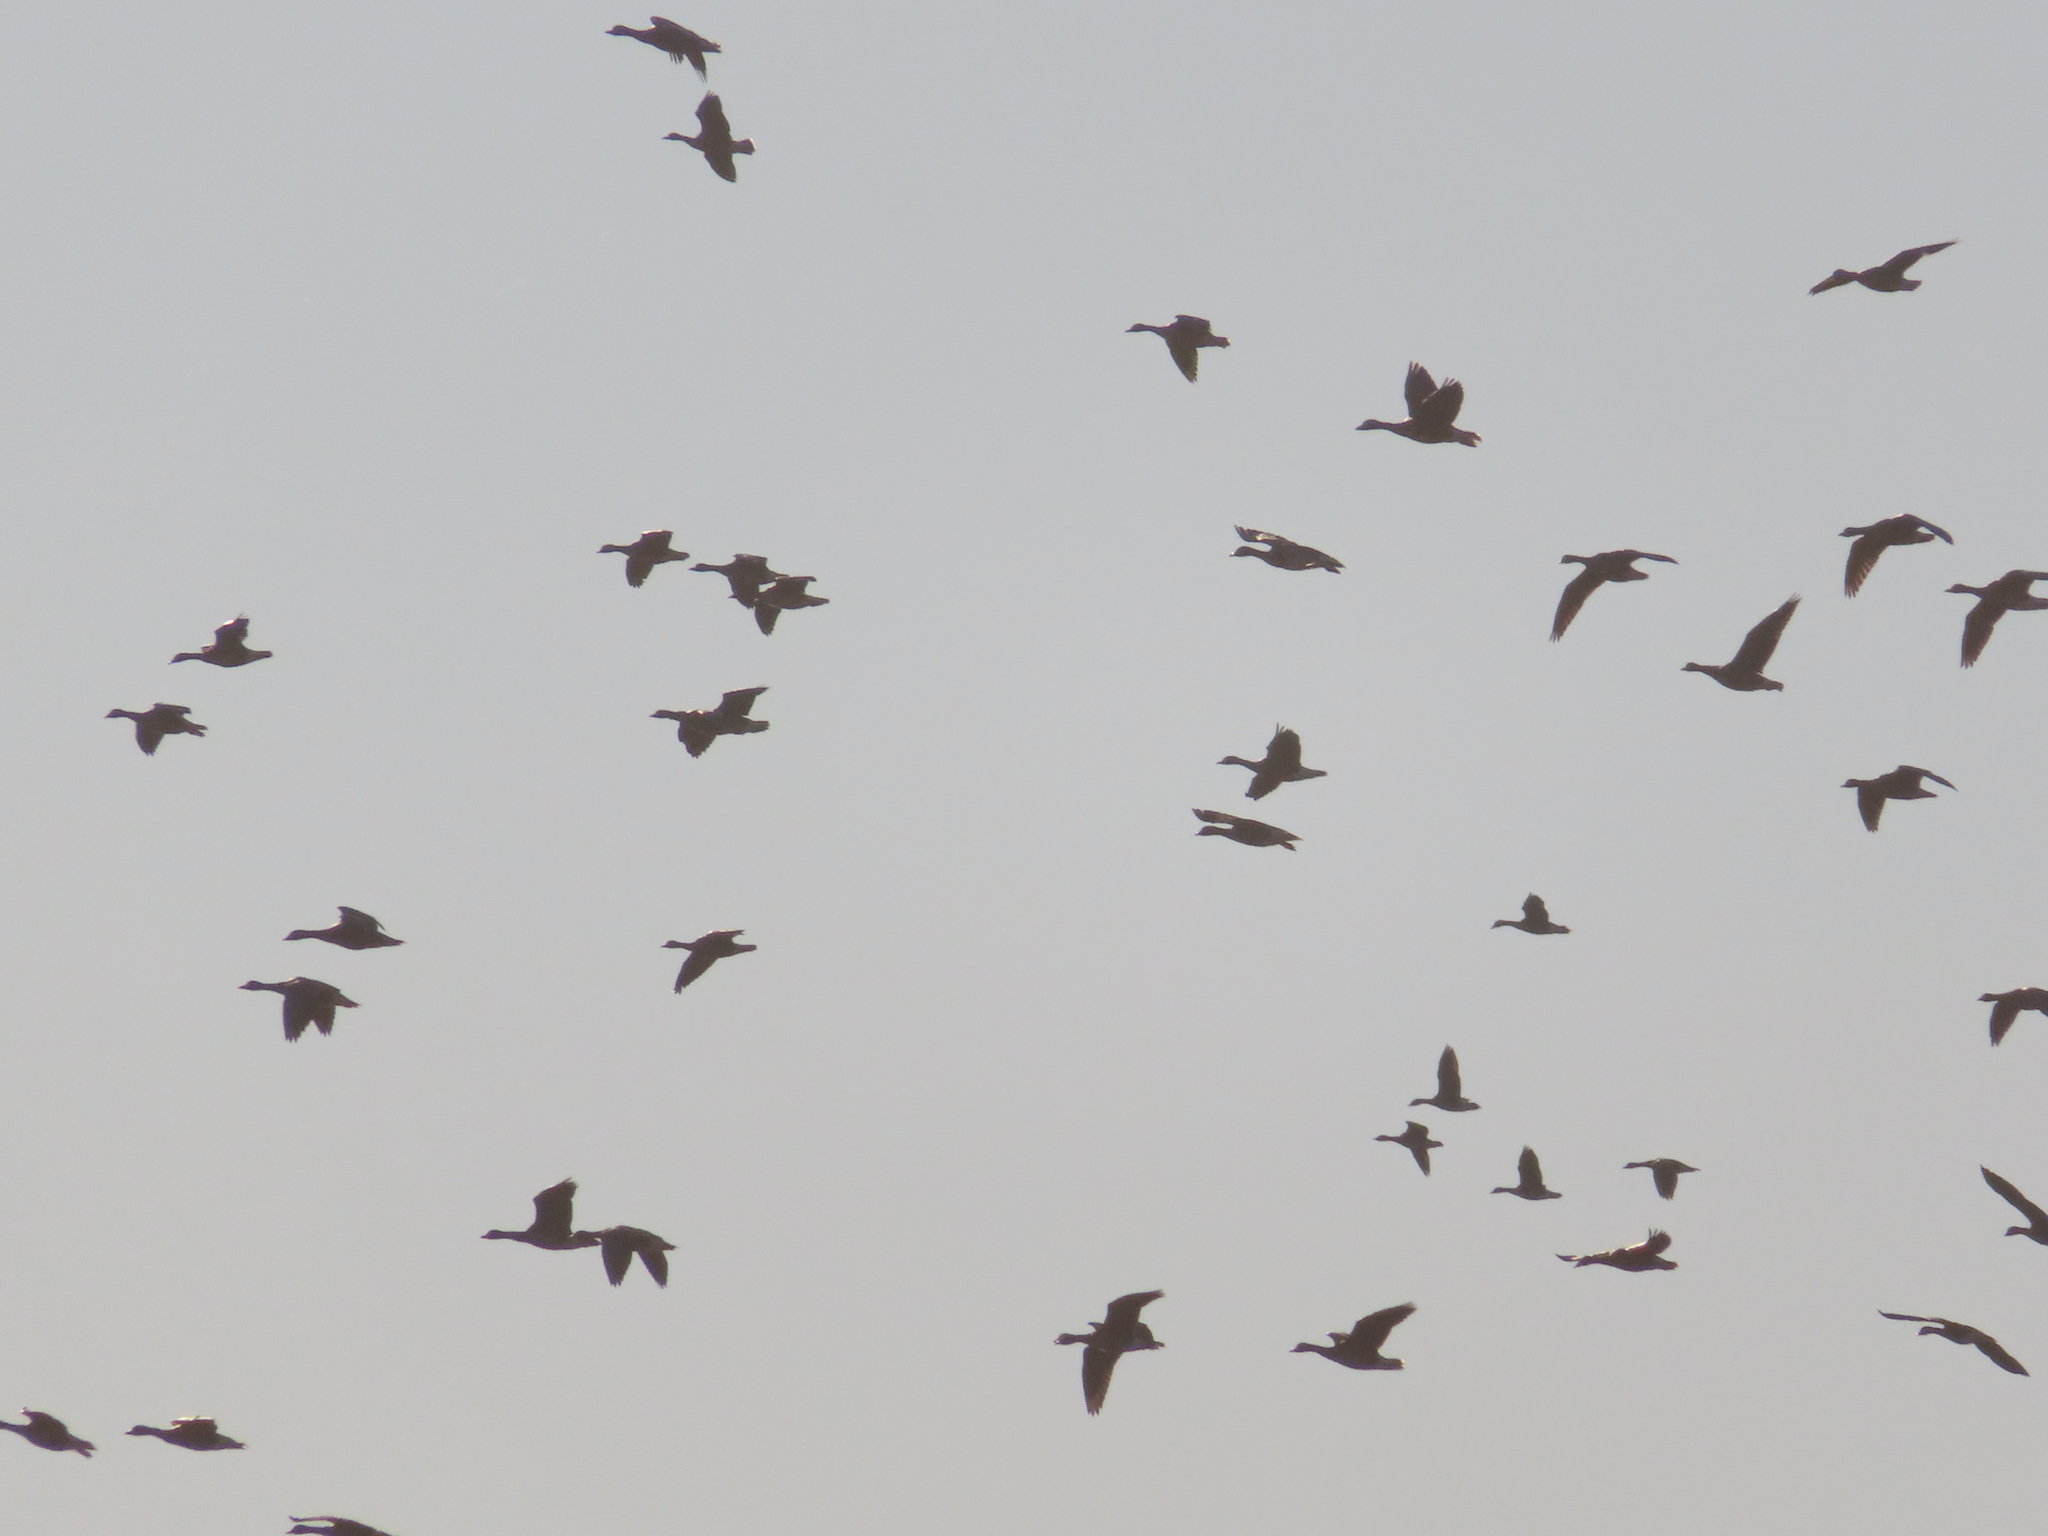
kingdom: Animalia
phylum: Chordata
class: Aves
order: Anseriformes
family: Anatidae
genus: Anser
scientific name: Anser caerulescens
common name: Snow goose
